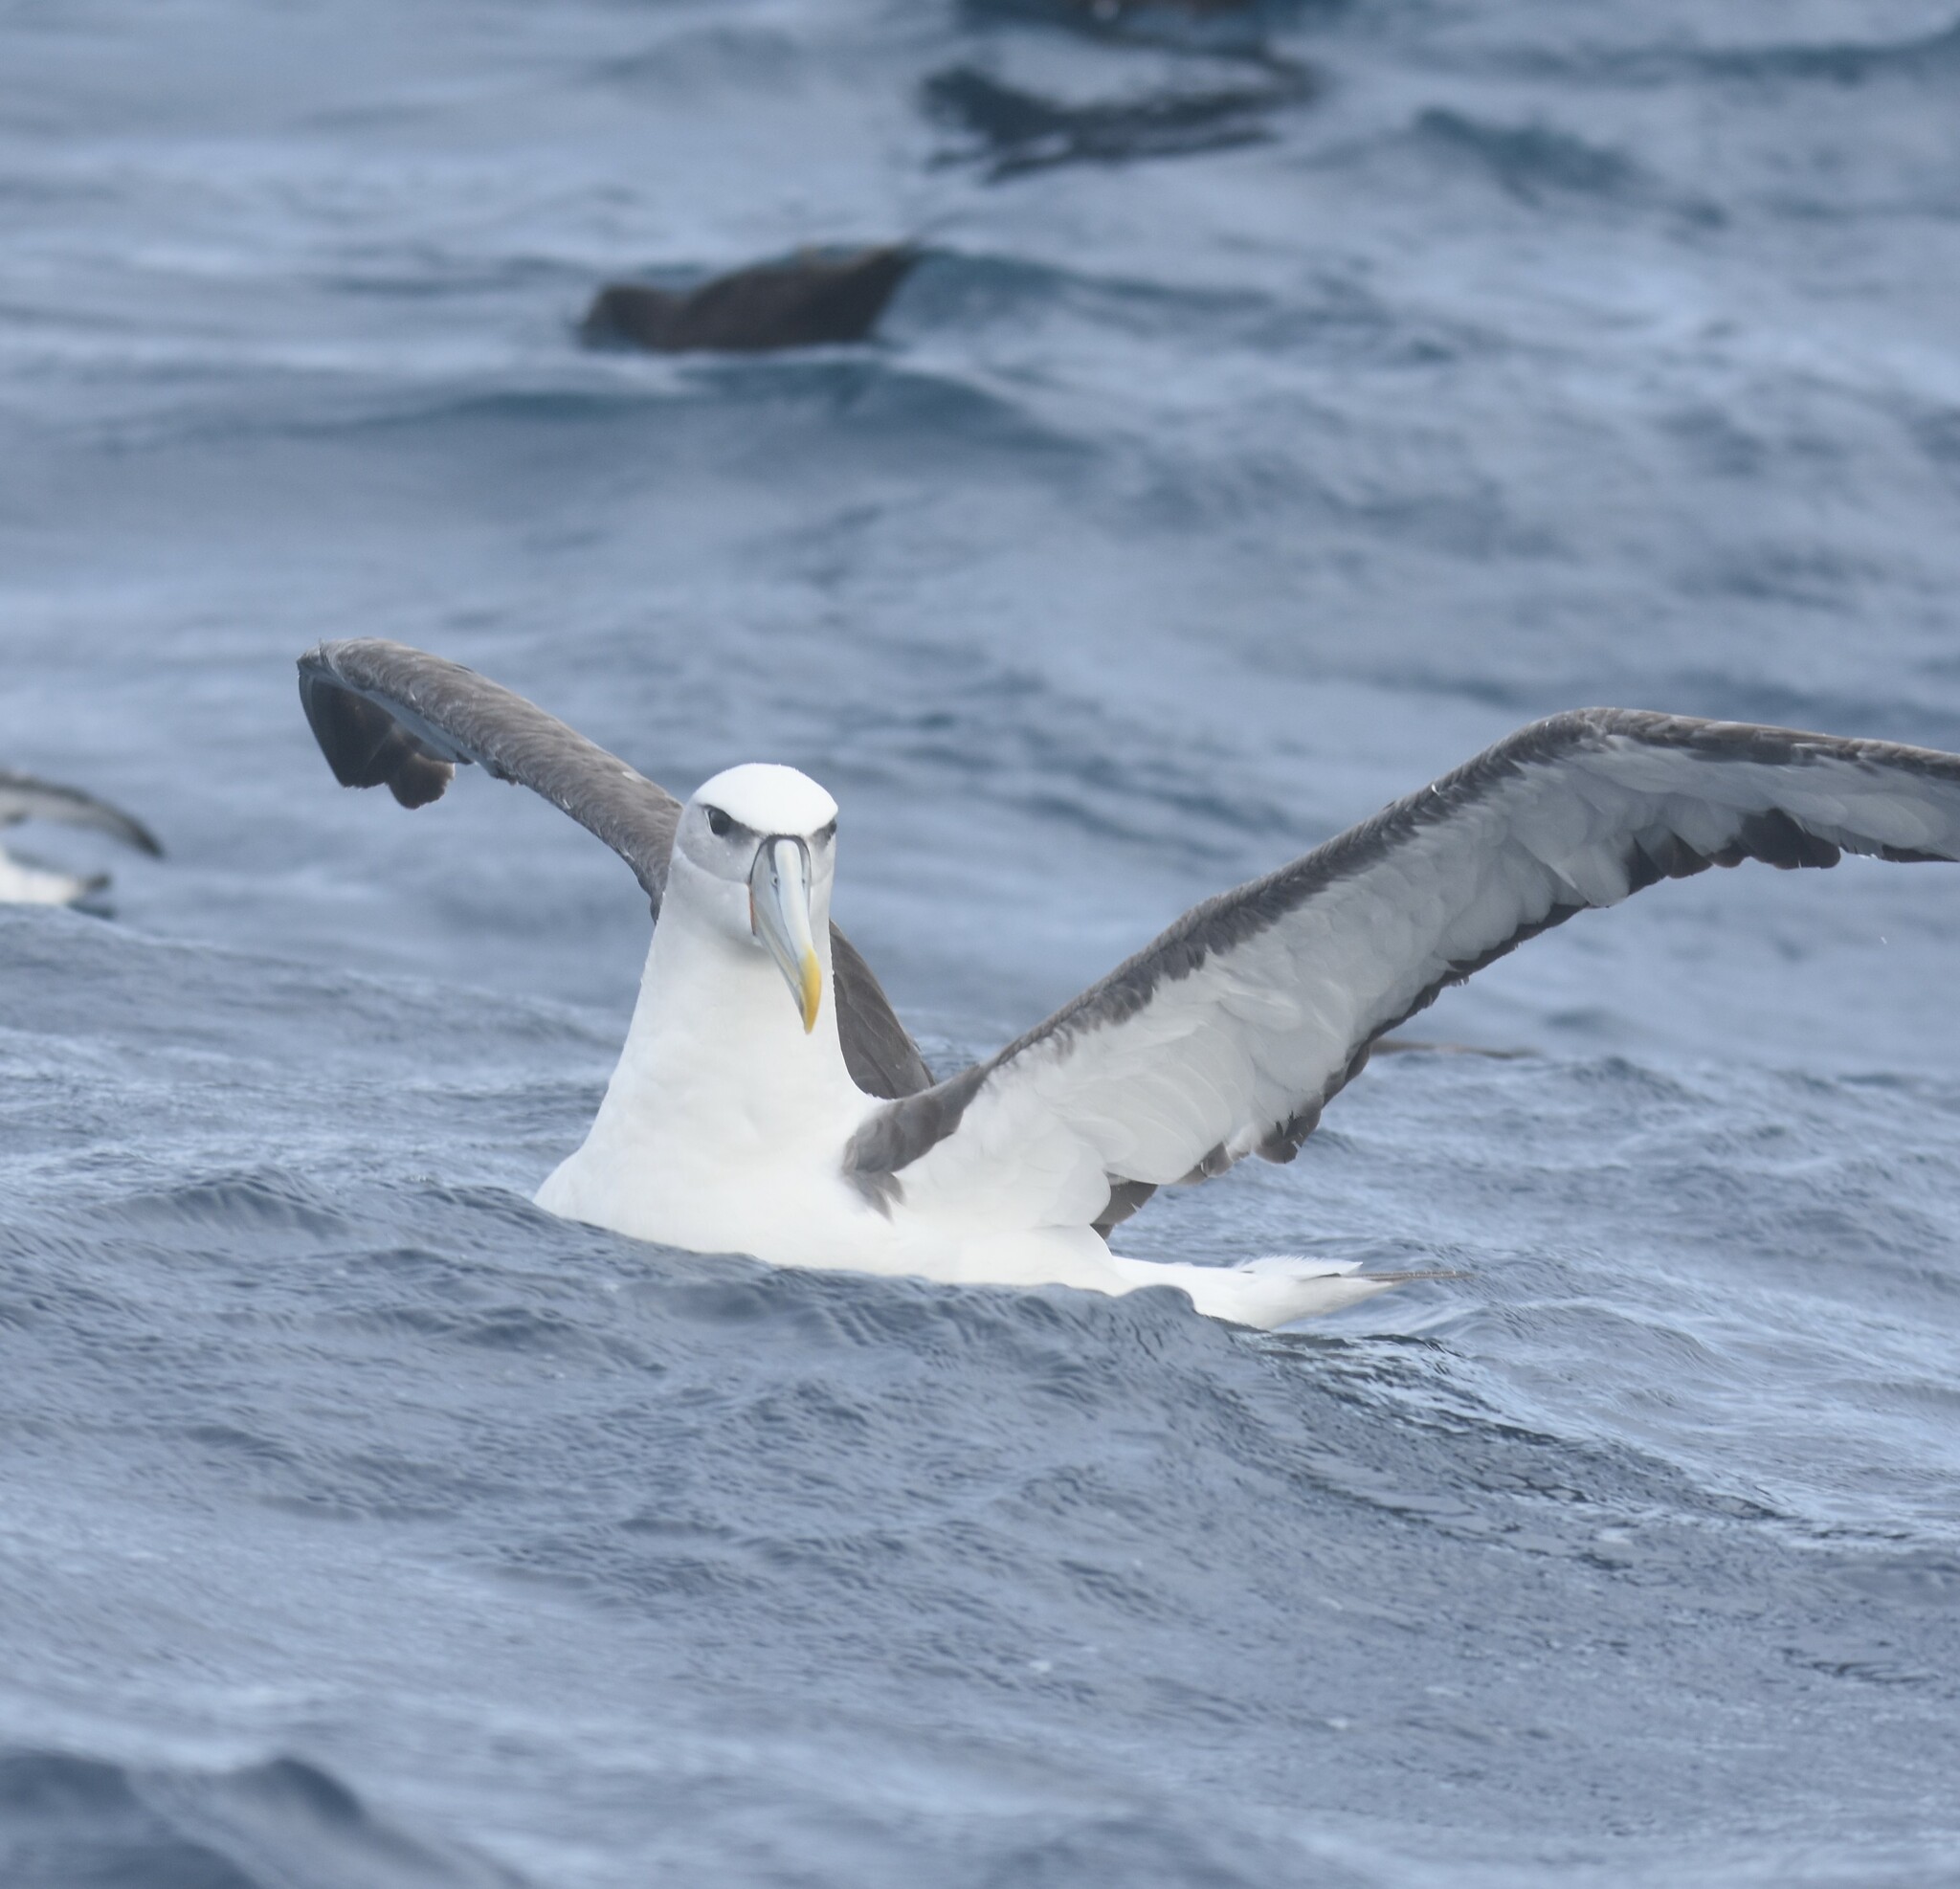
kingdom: Animalia
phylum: Chordata
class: Aves
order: Procellariiformes
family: Diomedeidae
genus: Thalassarche
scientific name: Thalassarche cauta
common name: Shy albatross
